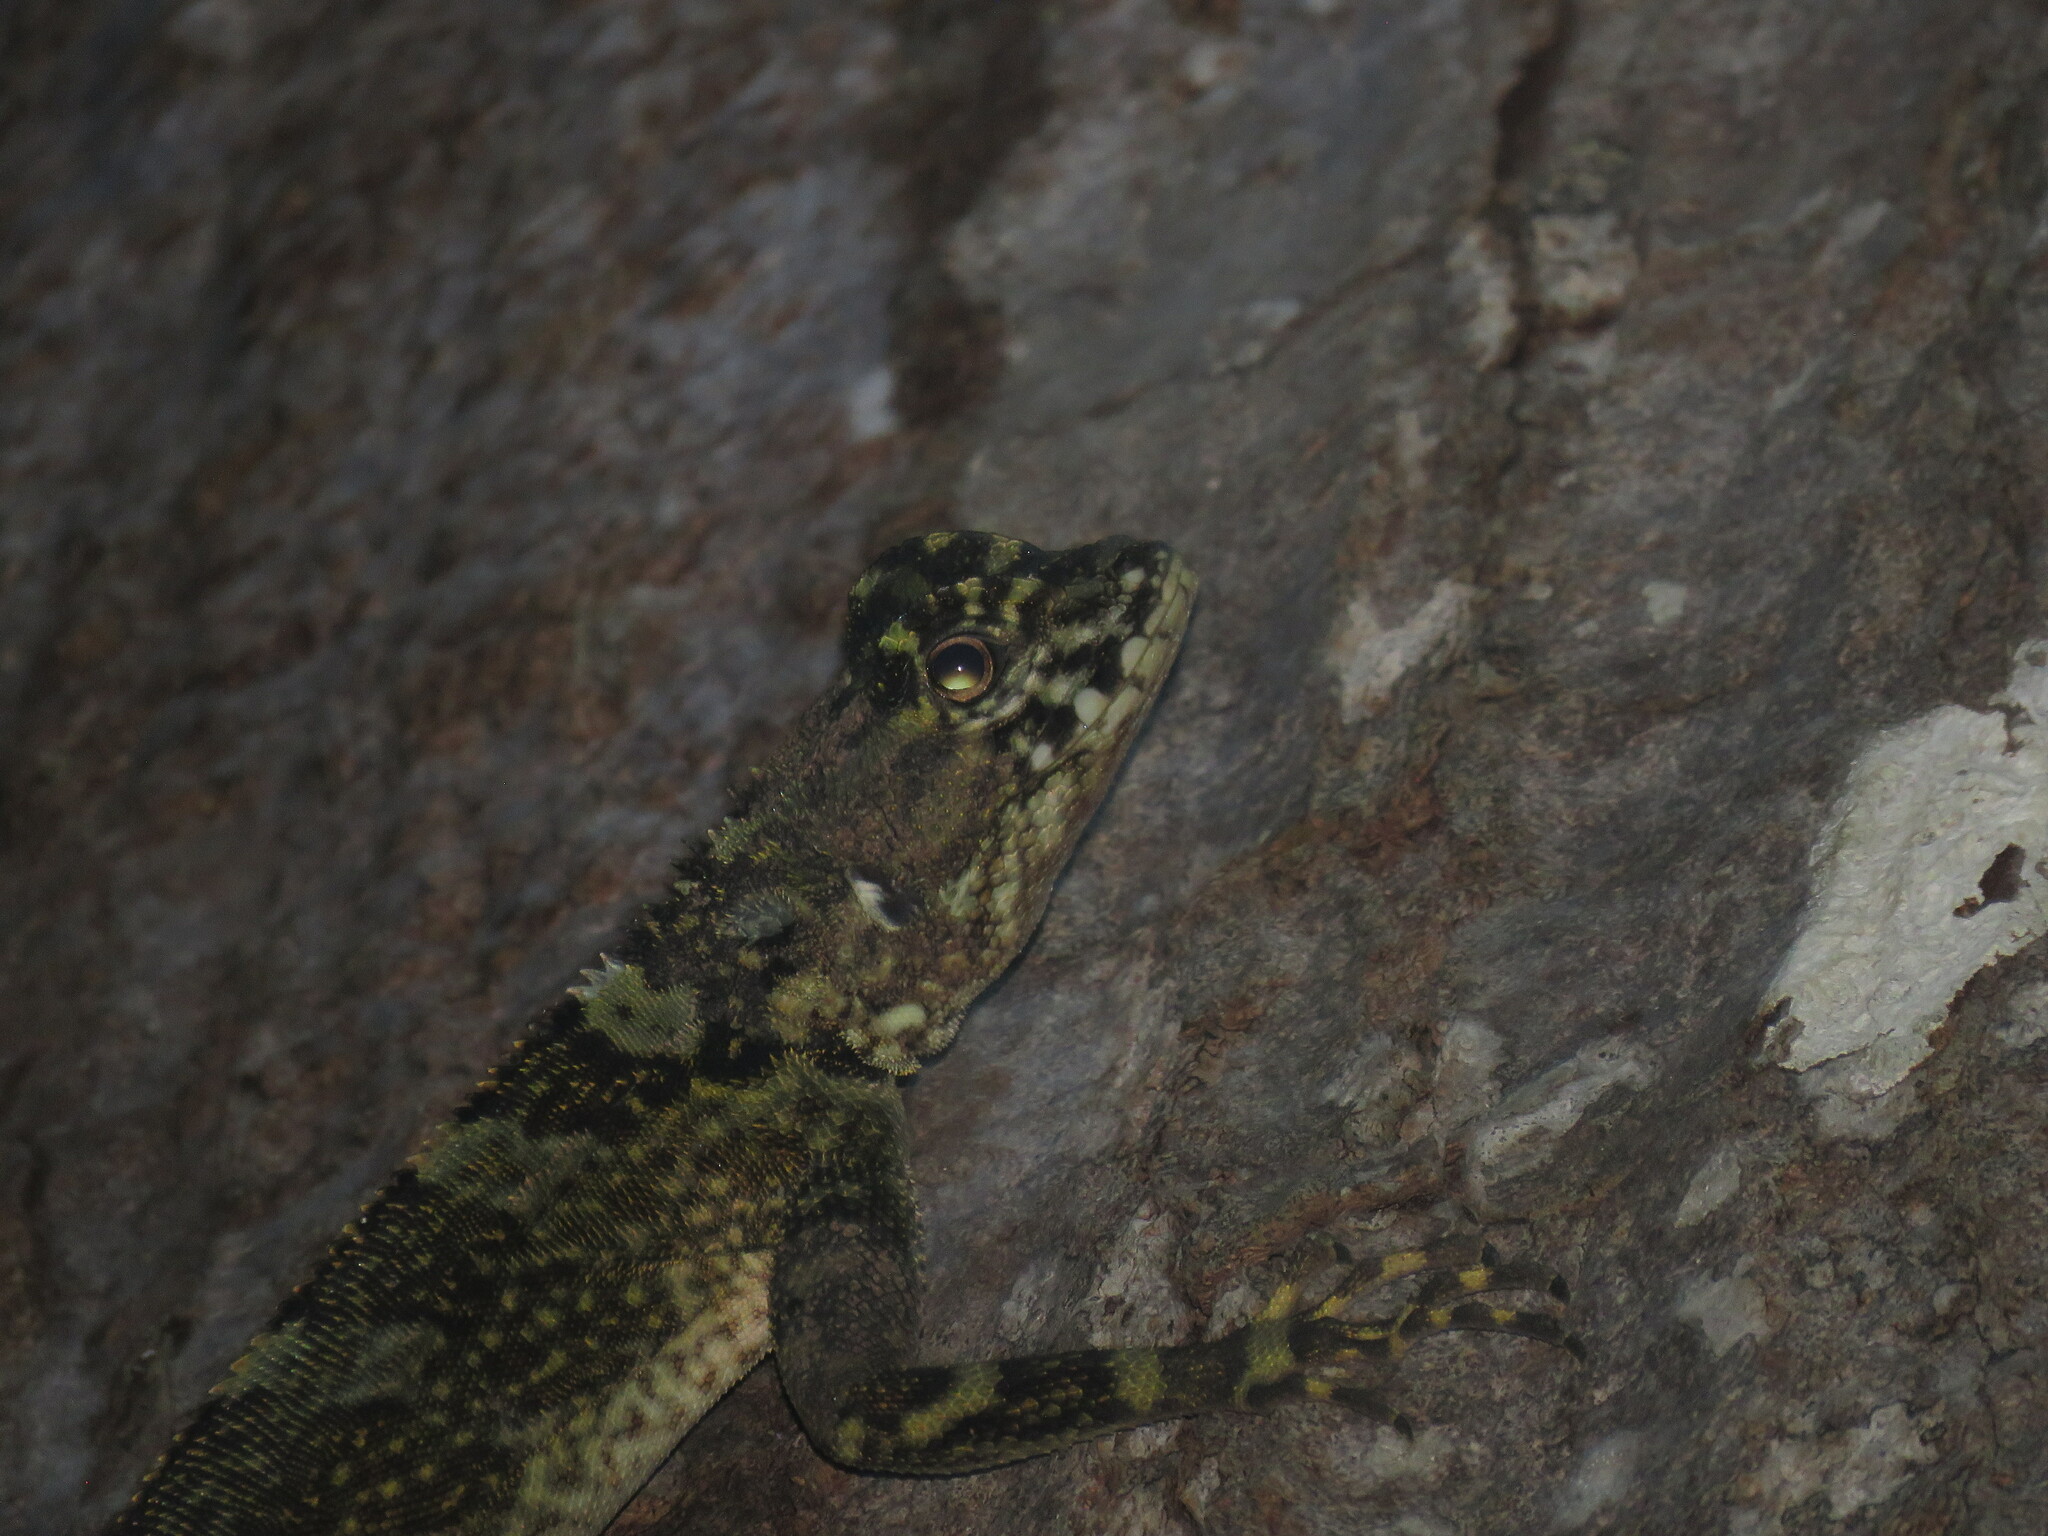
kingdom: Animalia
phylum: Chordata
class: Squamata
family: Tropiduridae
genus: Plica
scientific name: Plica plica
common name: Tree runner
